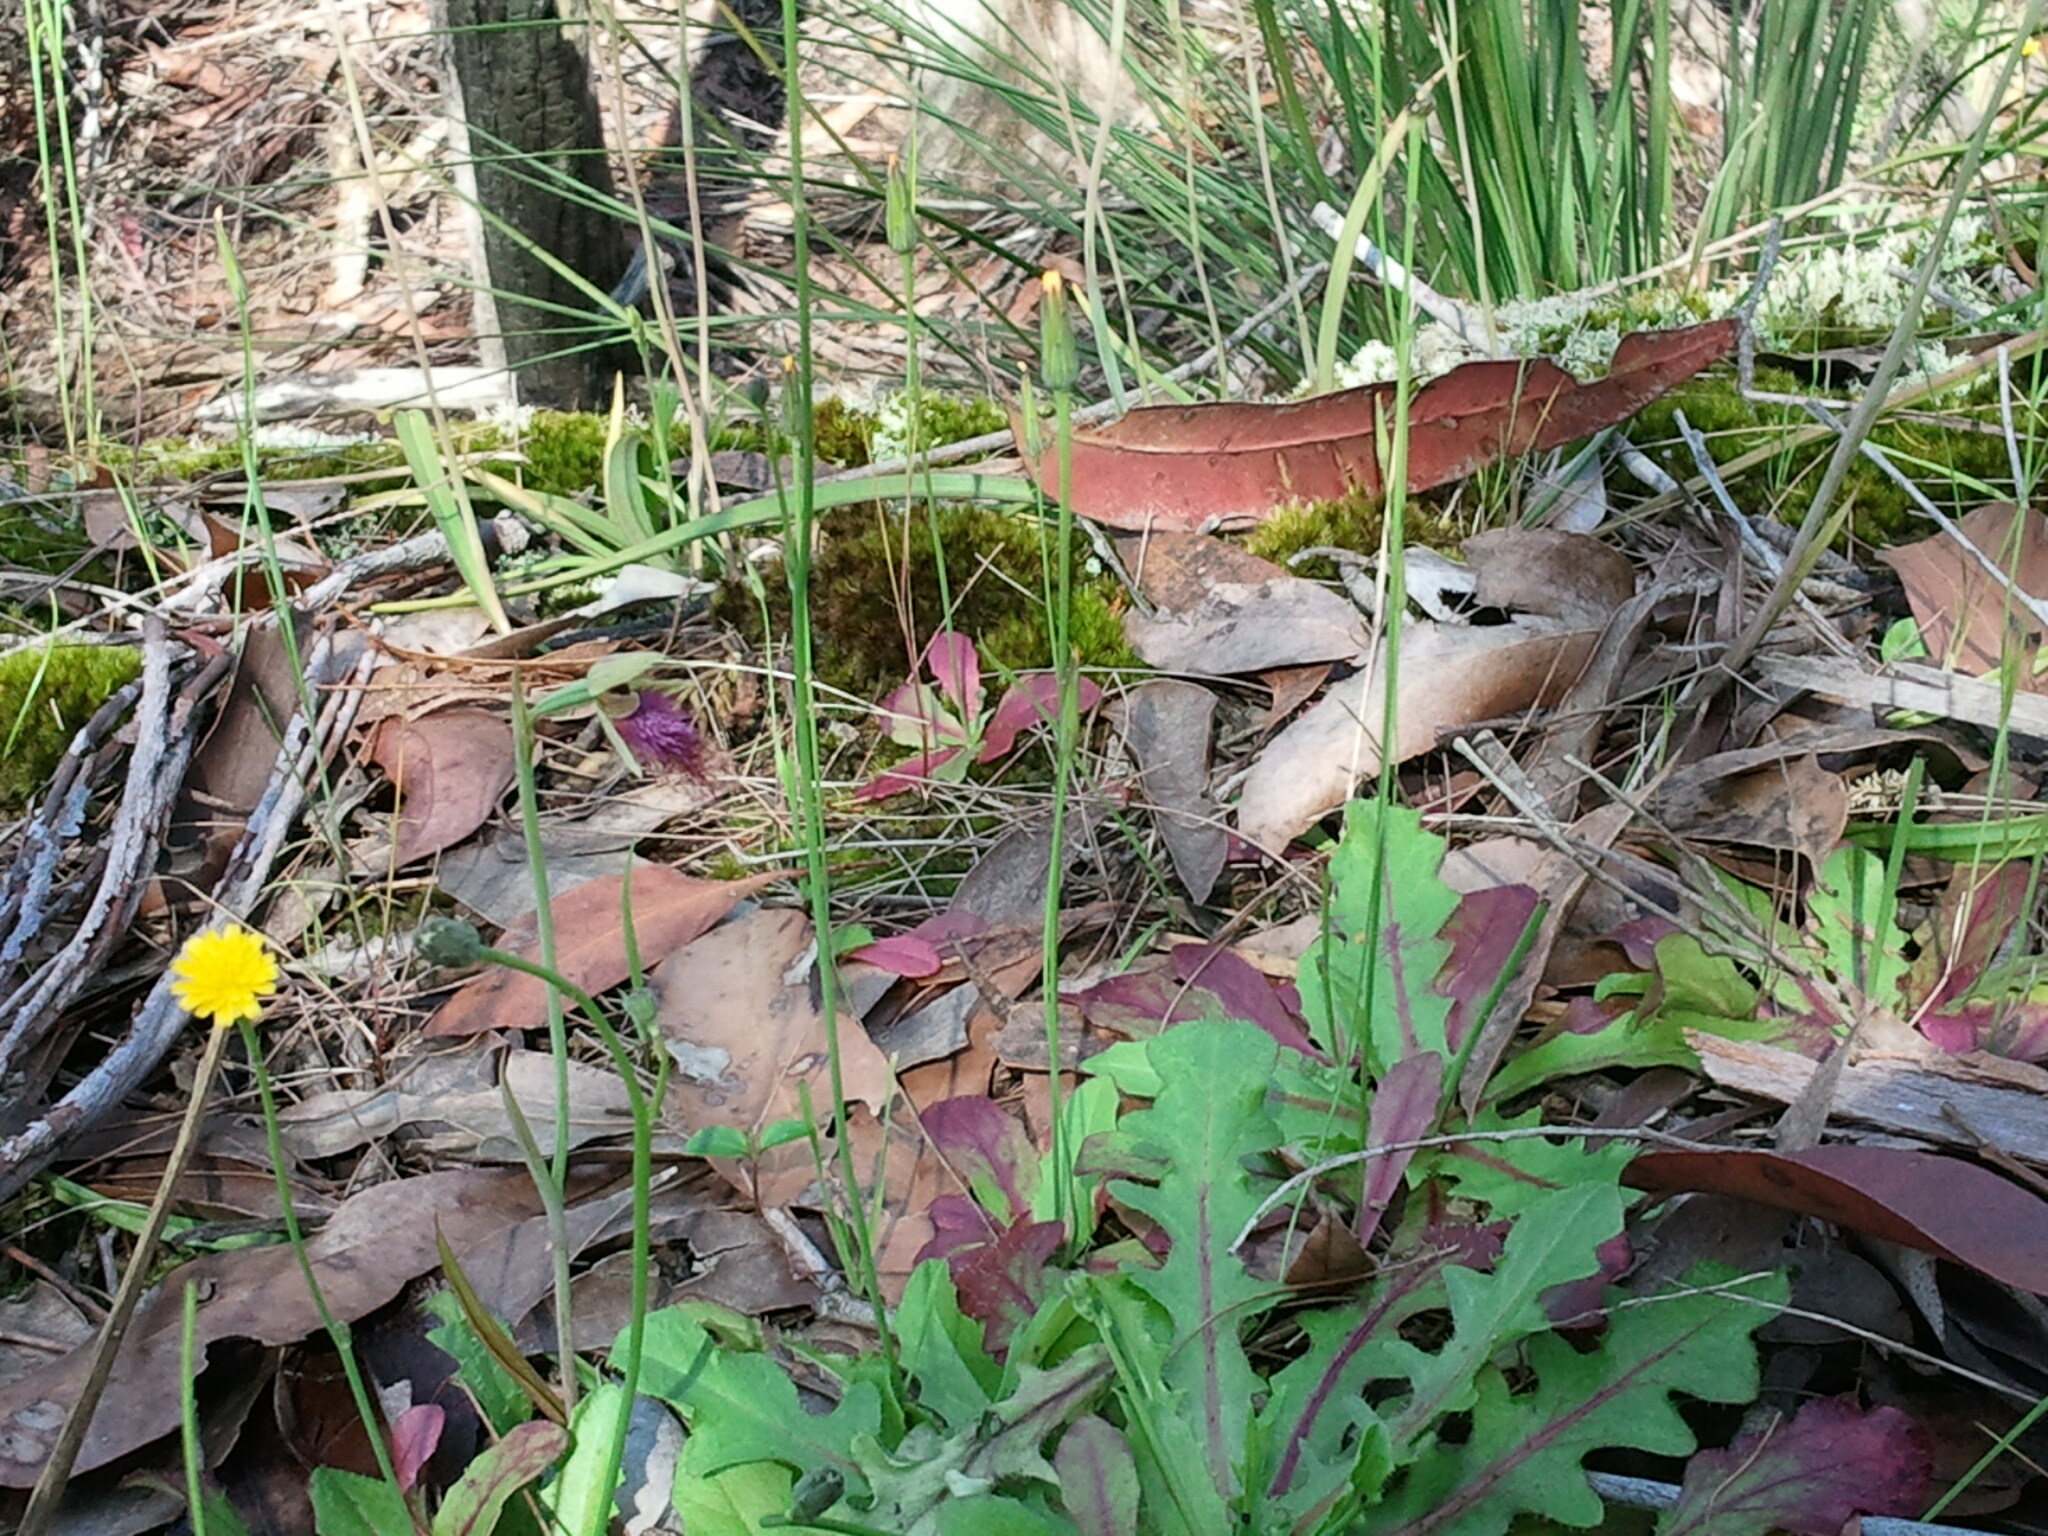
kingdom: Plantae
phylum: Tracheophyta
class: Liliopsida
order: Asparagales
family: Orchidaceae
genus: Calochilus
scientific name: Calochilus paludosus
